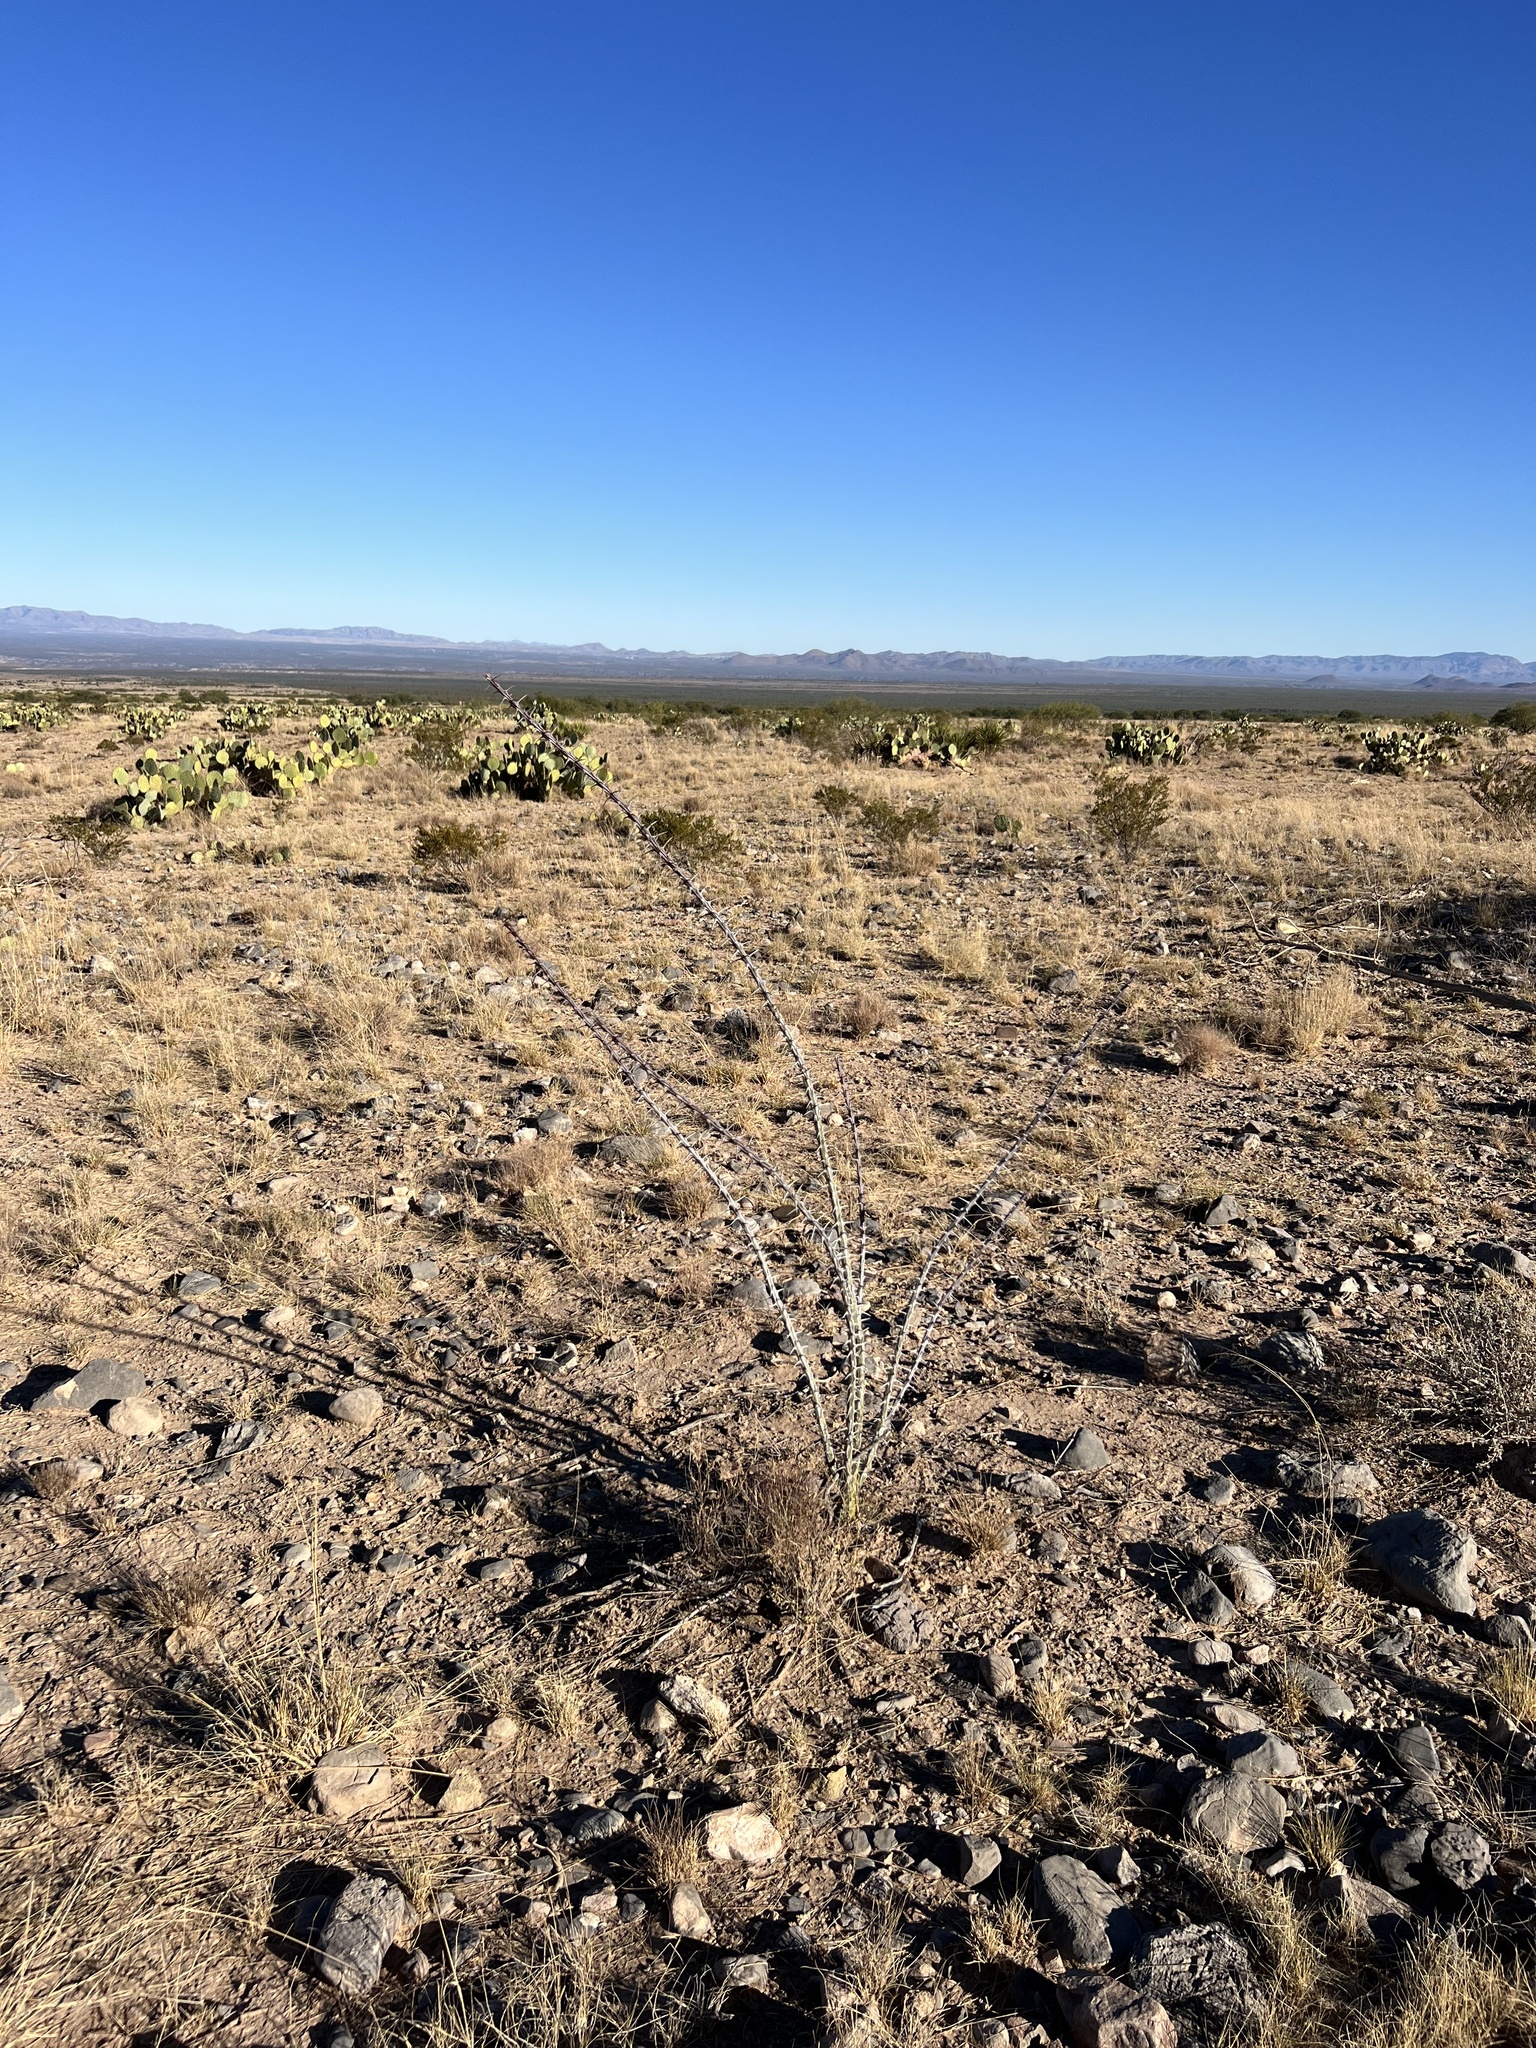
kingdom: Plantae
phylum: Tracheophyta
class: Magnoliopsida
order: Ericales
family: Fouquieriaceae
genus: Fouquieria
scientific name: Fouquieria splendens
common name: Vine-cactus
